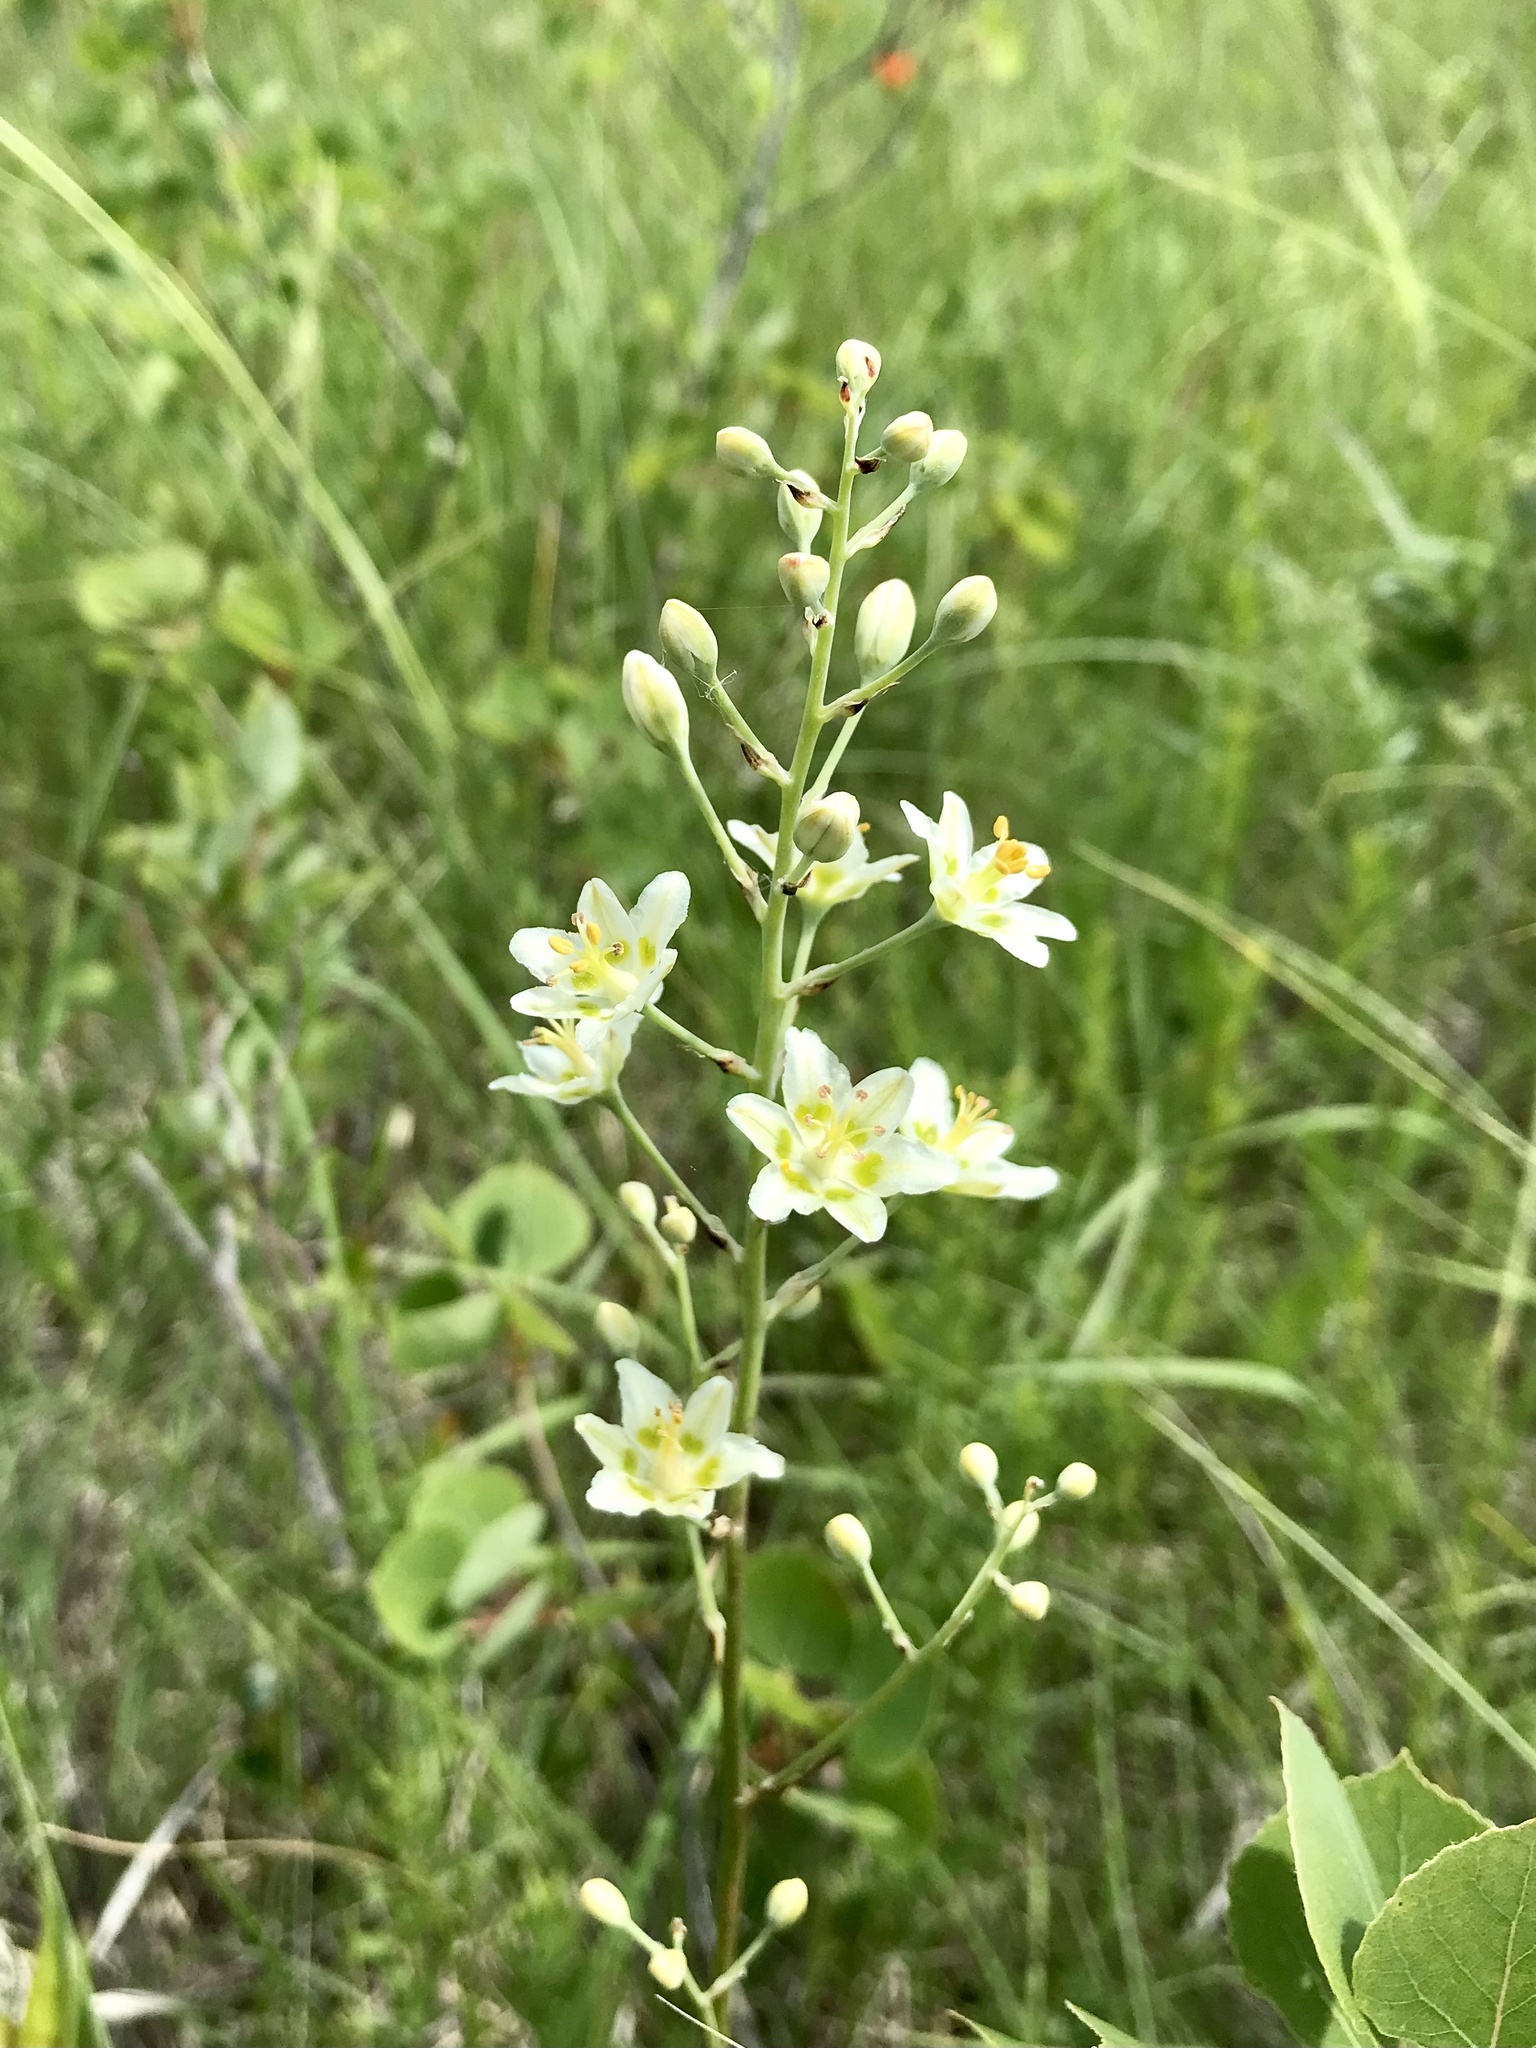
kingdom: Plantae
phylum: Tracheophyta
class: Liliopsida
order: Liliales
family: Melanthiaceae
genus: Anticlea
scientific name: Anticlea elegans
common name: Mountain death camas
